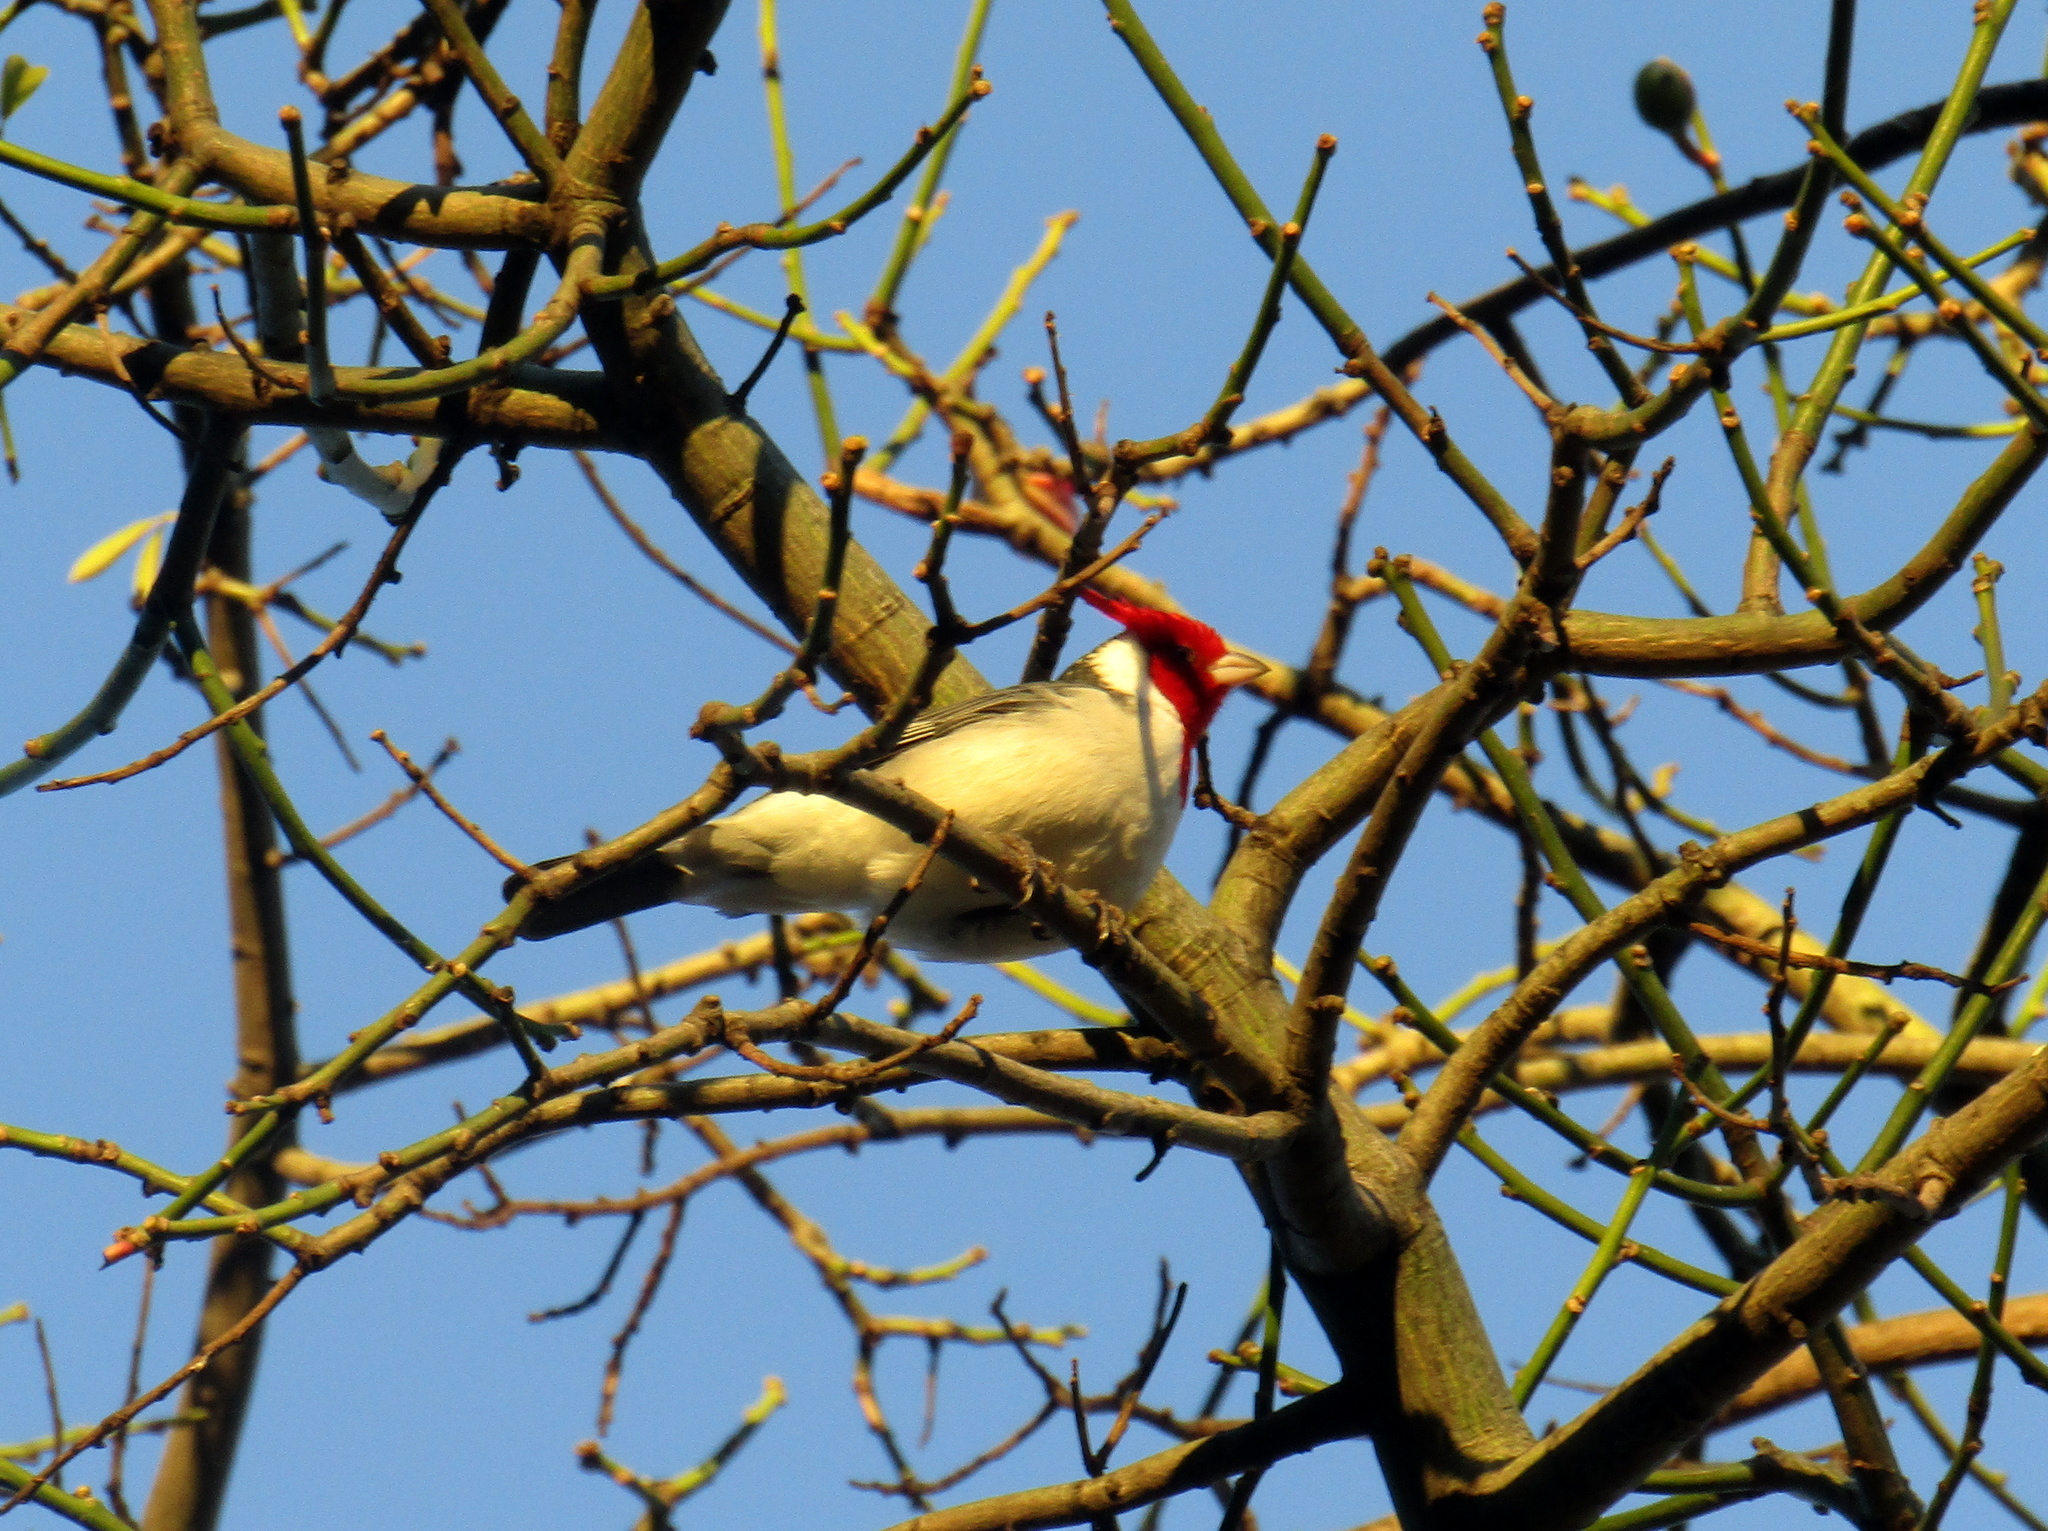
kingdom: Animalia
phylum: Chordata
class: Aves
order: Passeriformes
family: Thraupidae
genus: Paroaria
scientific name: Paroaria coronata
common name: Red-crested cardinal
